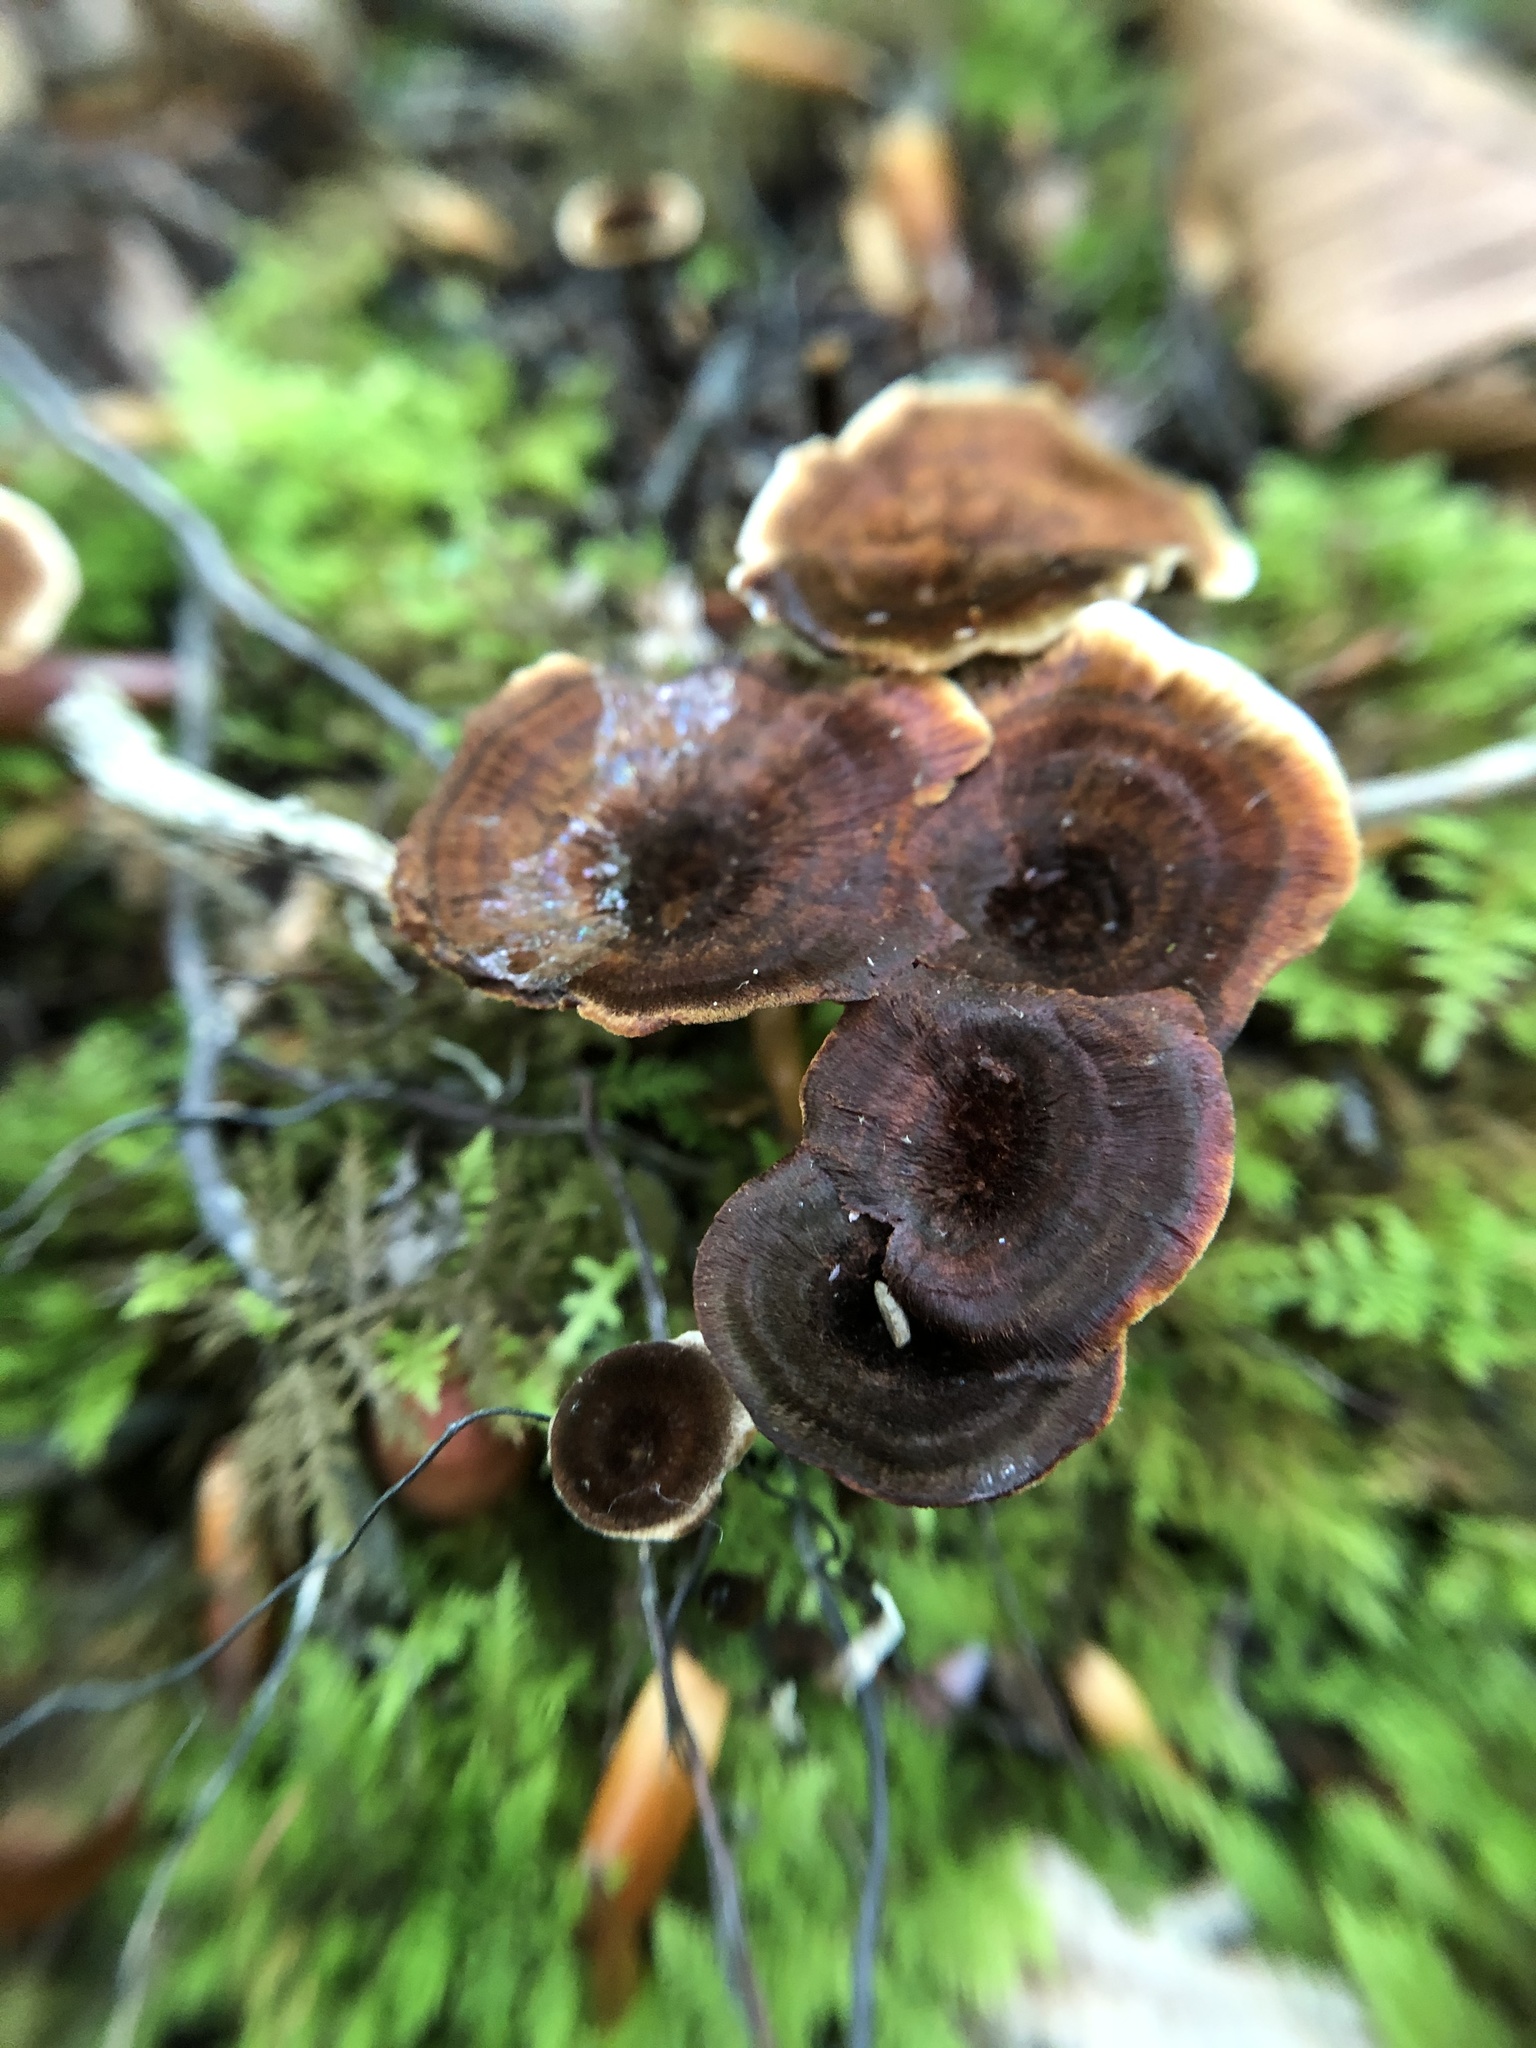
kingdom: Fungi
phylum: Basidiomycota
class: Agaricomycetes
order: Hymenochaetales
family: Hymenochaetaceae
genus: Coltricia
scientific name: Coltricia cinnamomea
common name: Shiny cinnamon polypore
